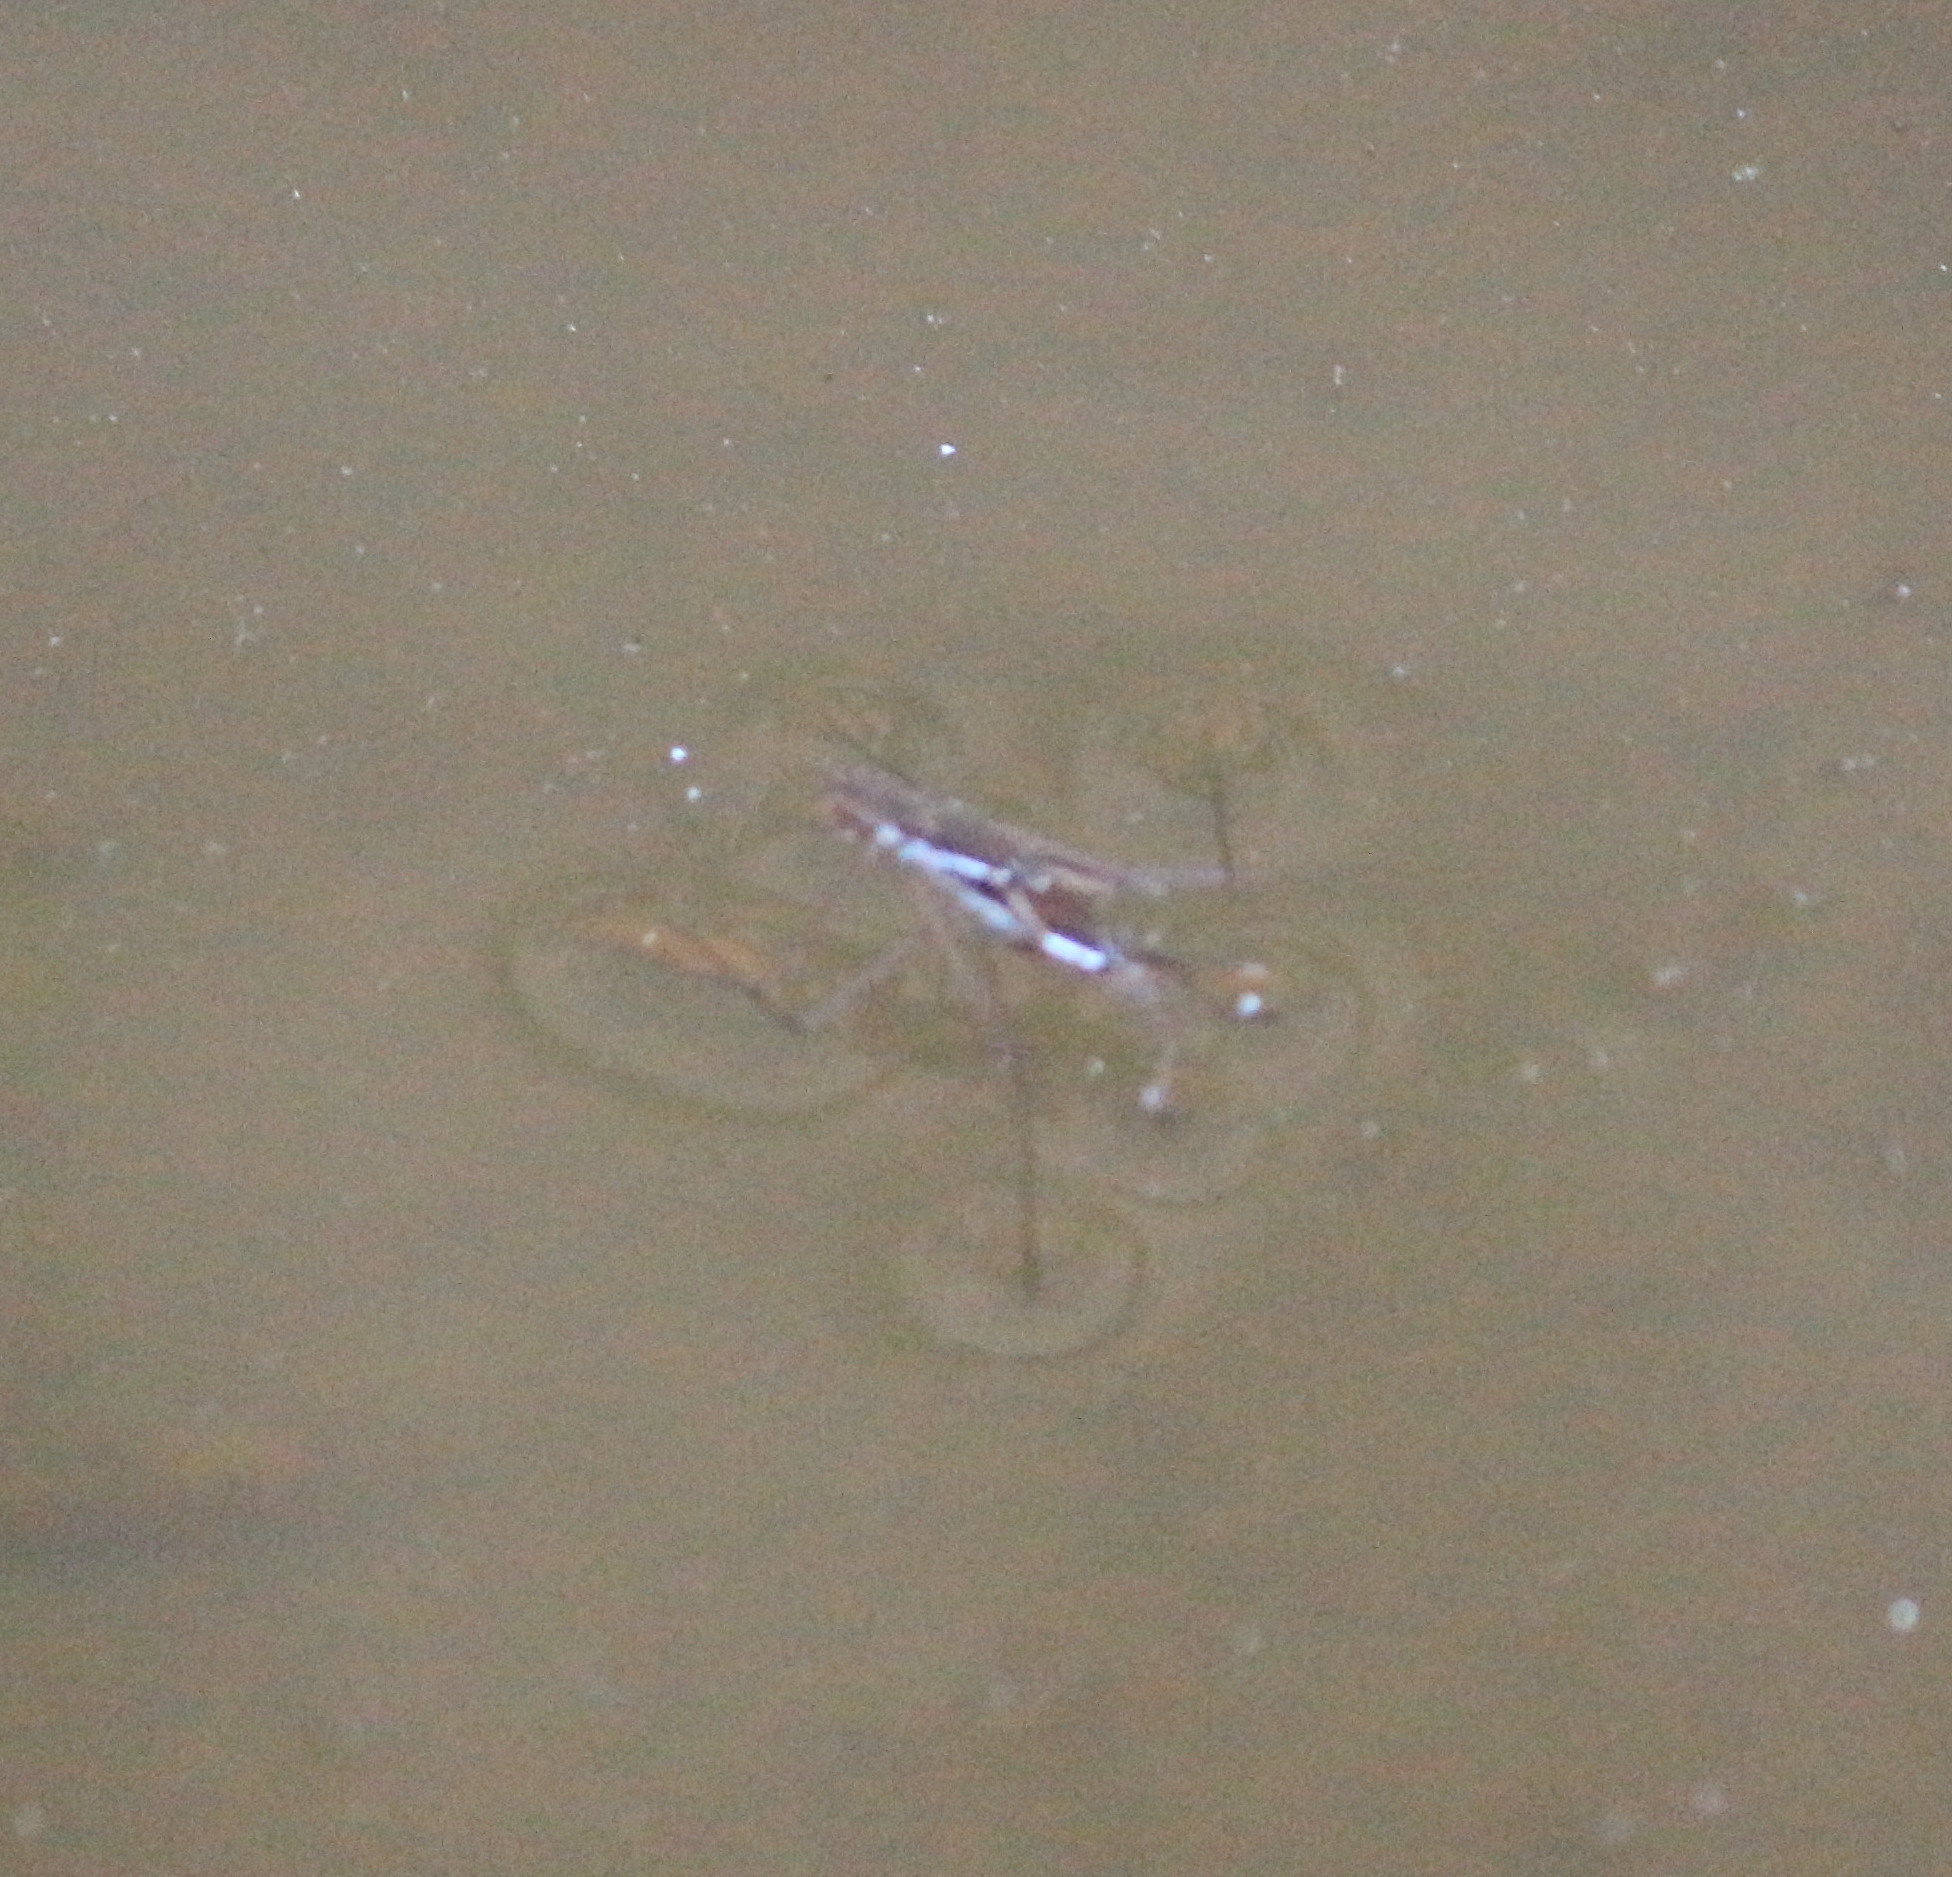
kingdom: Animalia
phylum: Arthropoda
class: Insecta
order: Hemiptera
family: Gerridae
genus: Aquarius
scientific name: Aquarius remigis
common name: Common water strider
